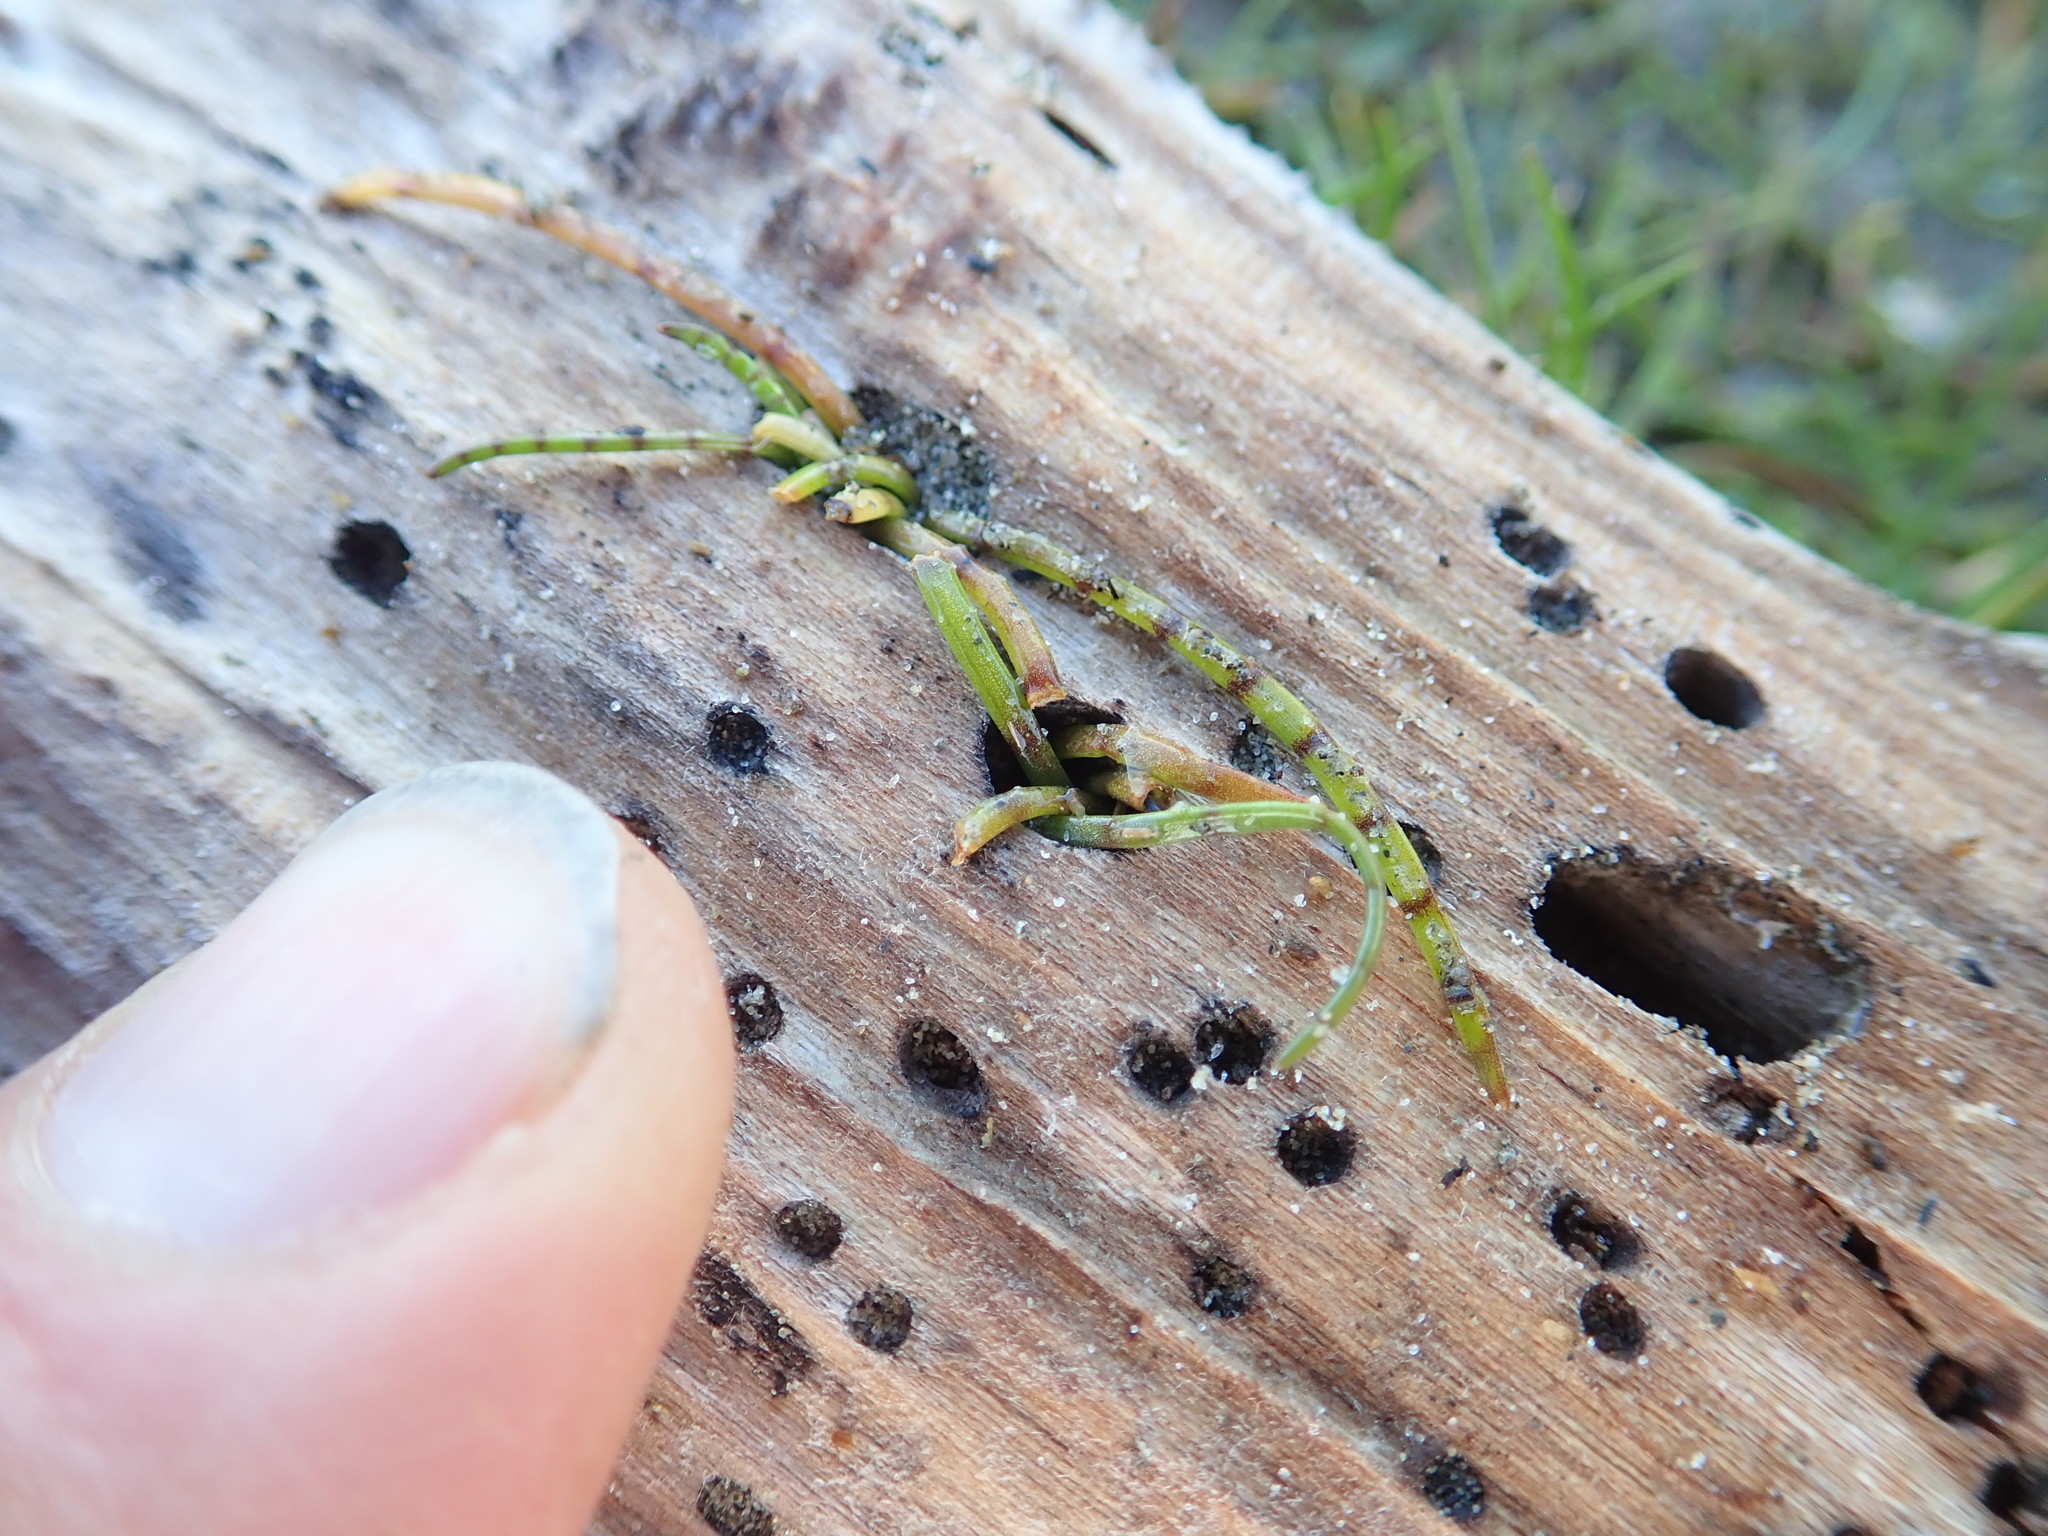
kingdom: Plantae
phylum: Tracheophyta
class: Magnoliopsida
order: Apiales
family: Apiaceae
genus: Lilaeopsis
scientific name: Lilaeopsis novae-zelandiae
